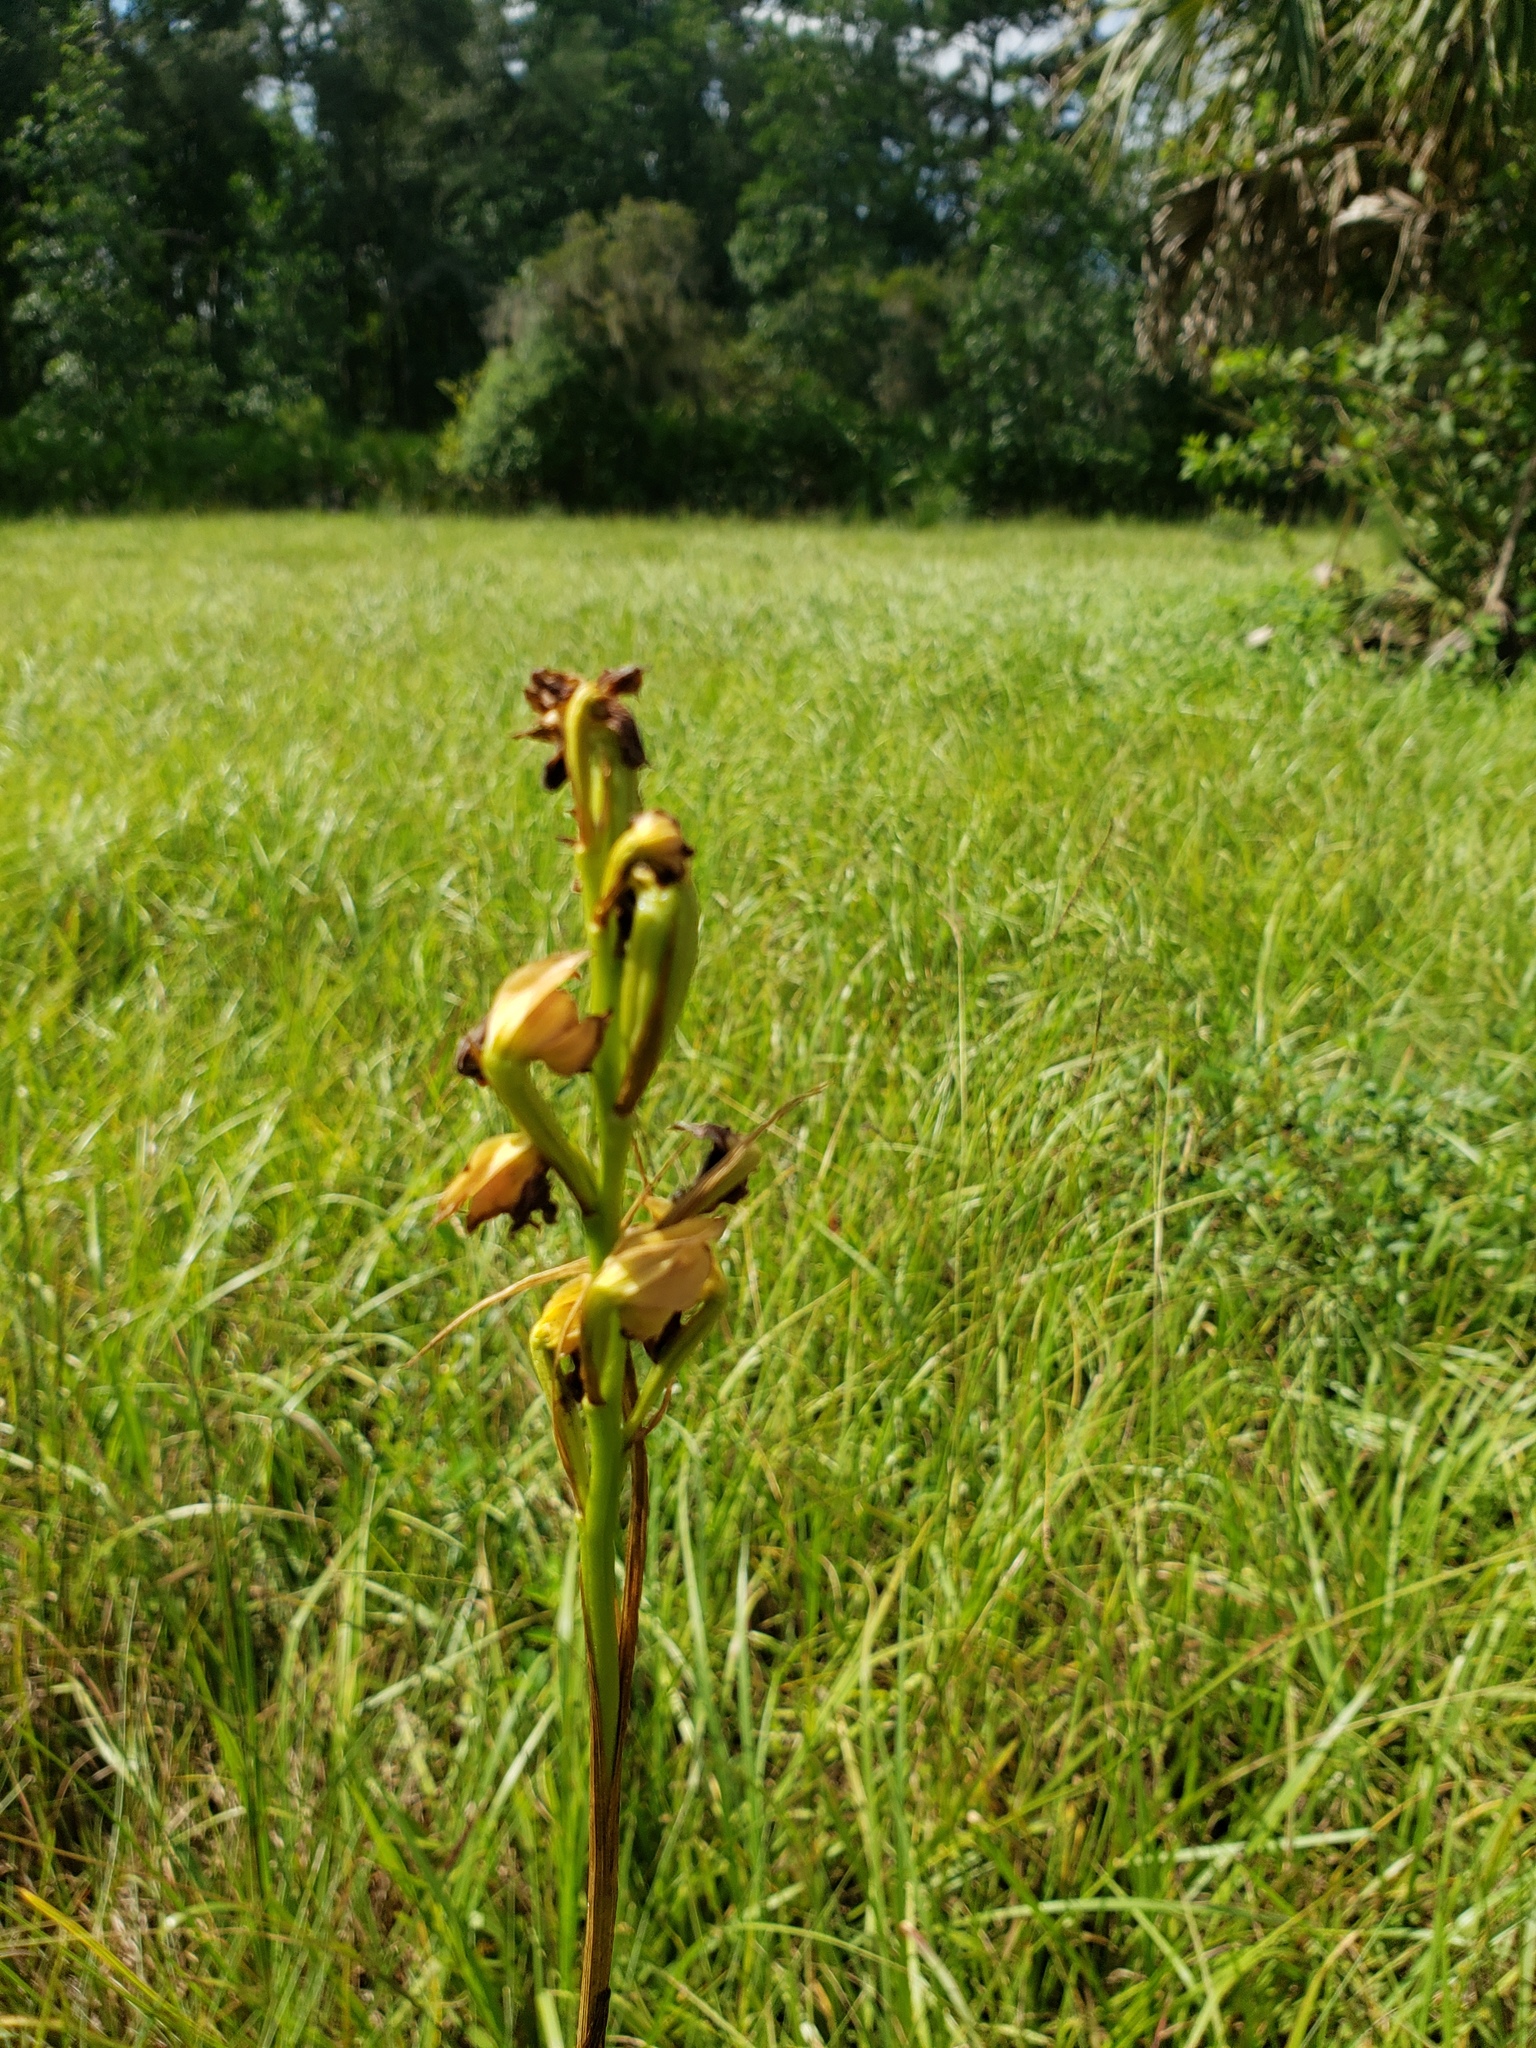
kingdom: Plantae
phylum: Tracheophyta
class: Liliopsida
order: Asparagales
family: Orchidaceae
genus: Eulophia
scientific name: Eulophia ecristata
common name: Giant orchid
